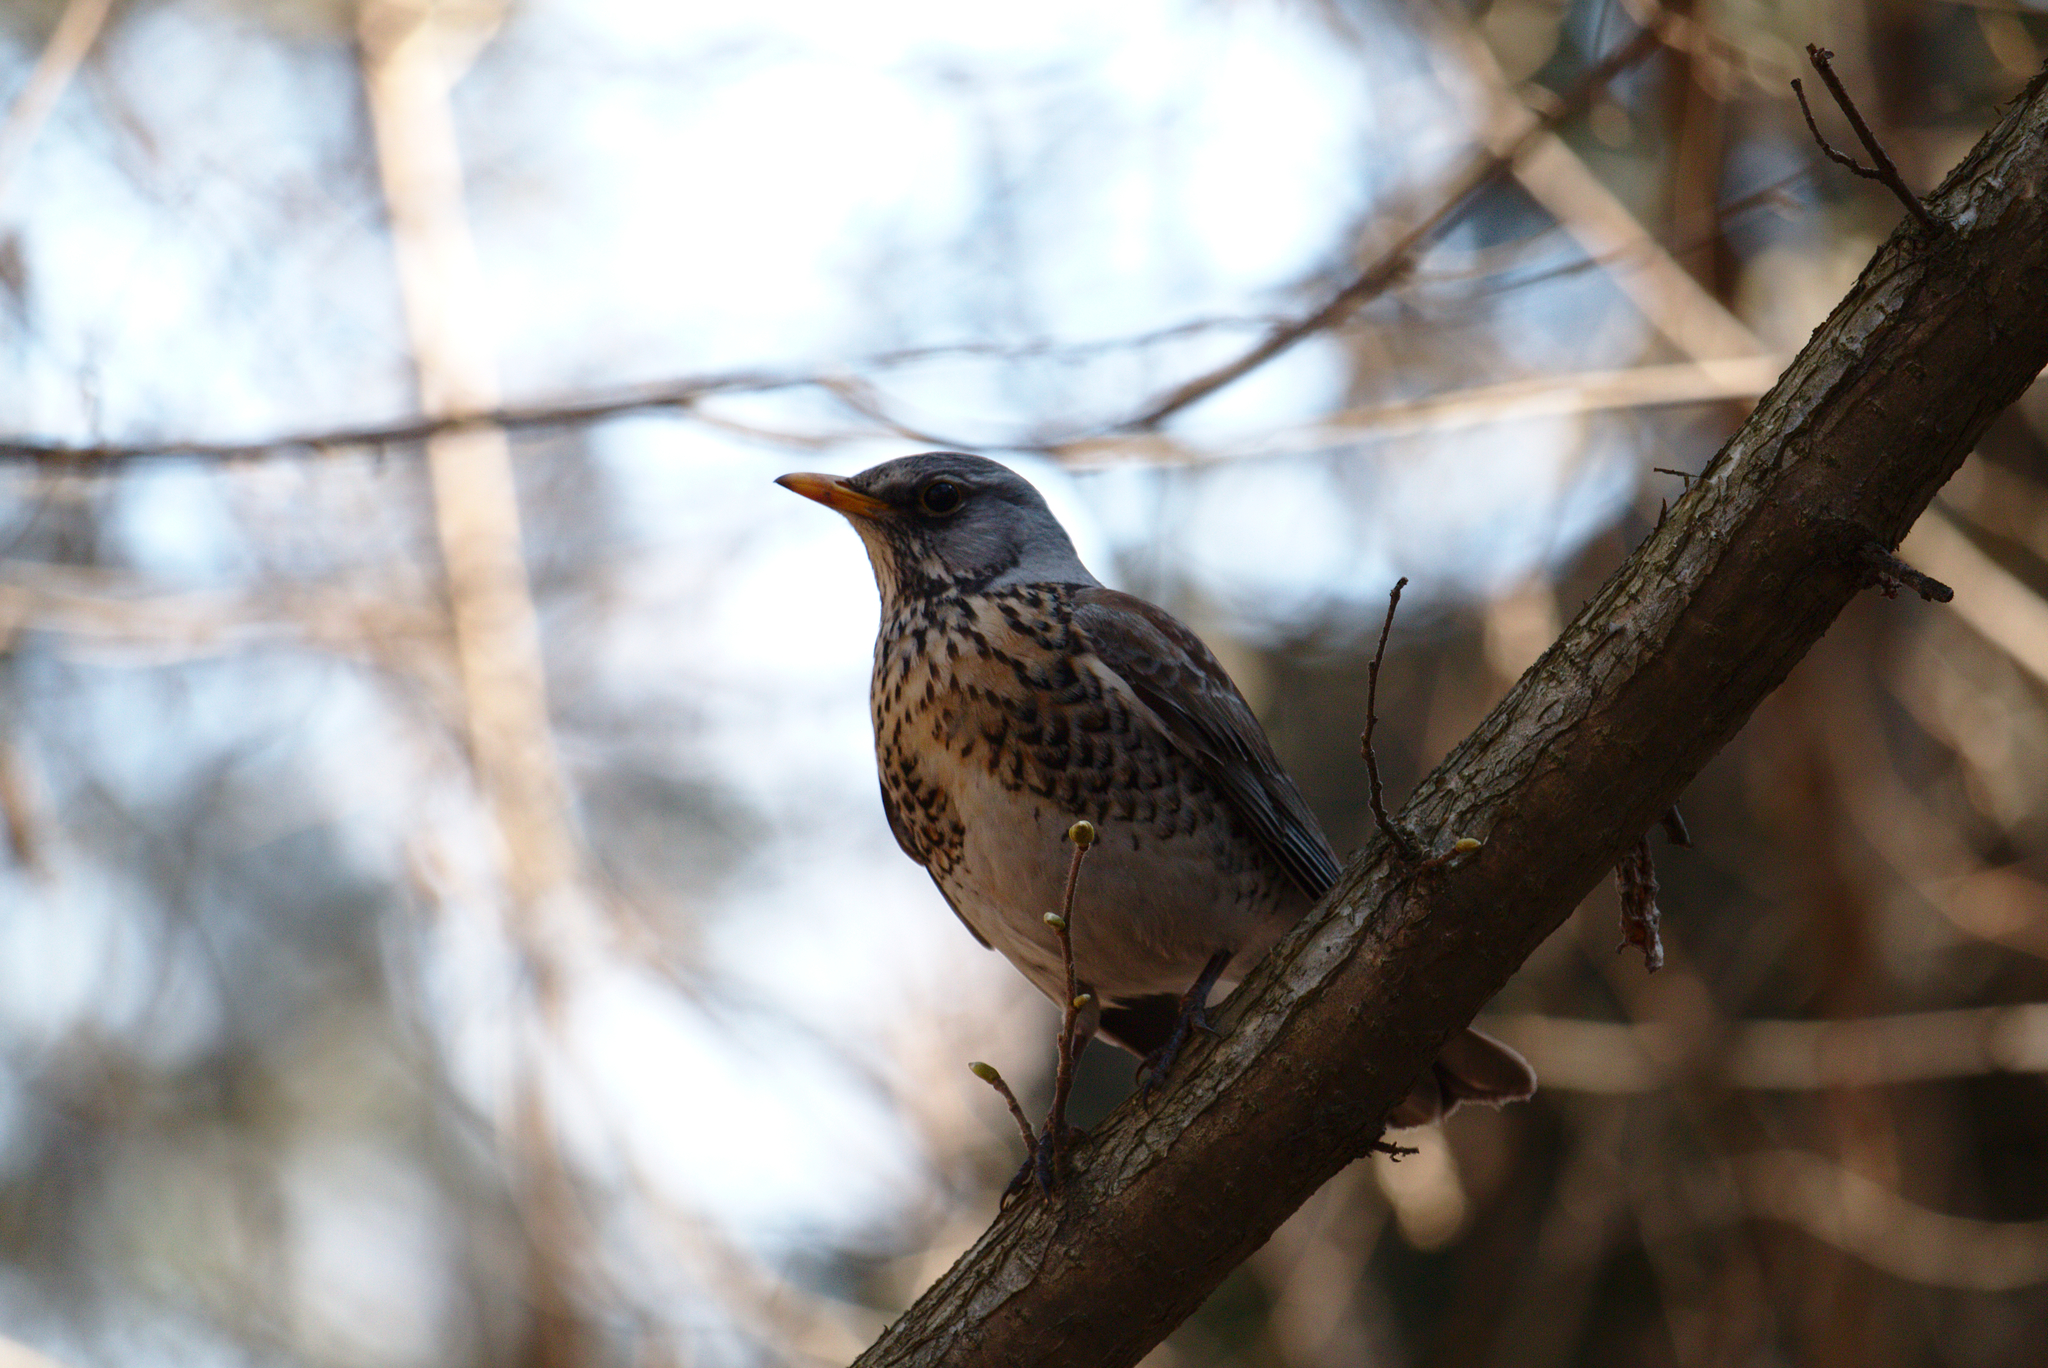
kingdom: Animalia
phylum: Chordata
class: Aves
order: Passeriformes
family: Turdidae
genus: Turdus
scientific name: Turdus pilaris
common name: Fieldfare
